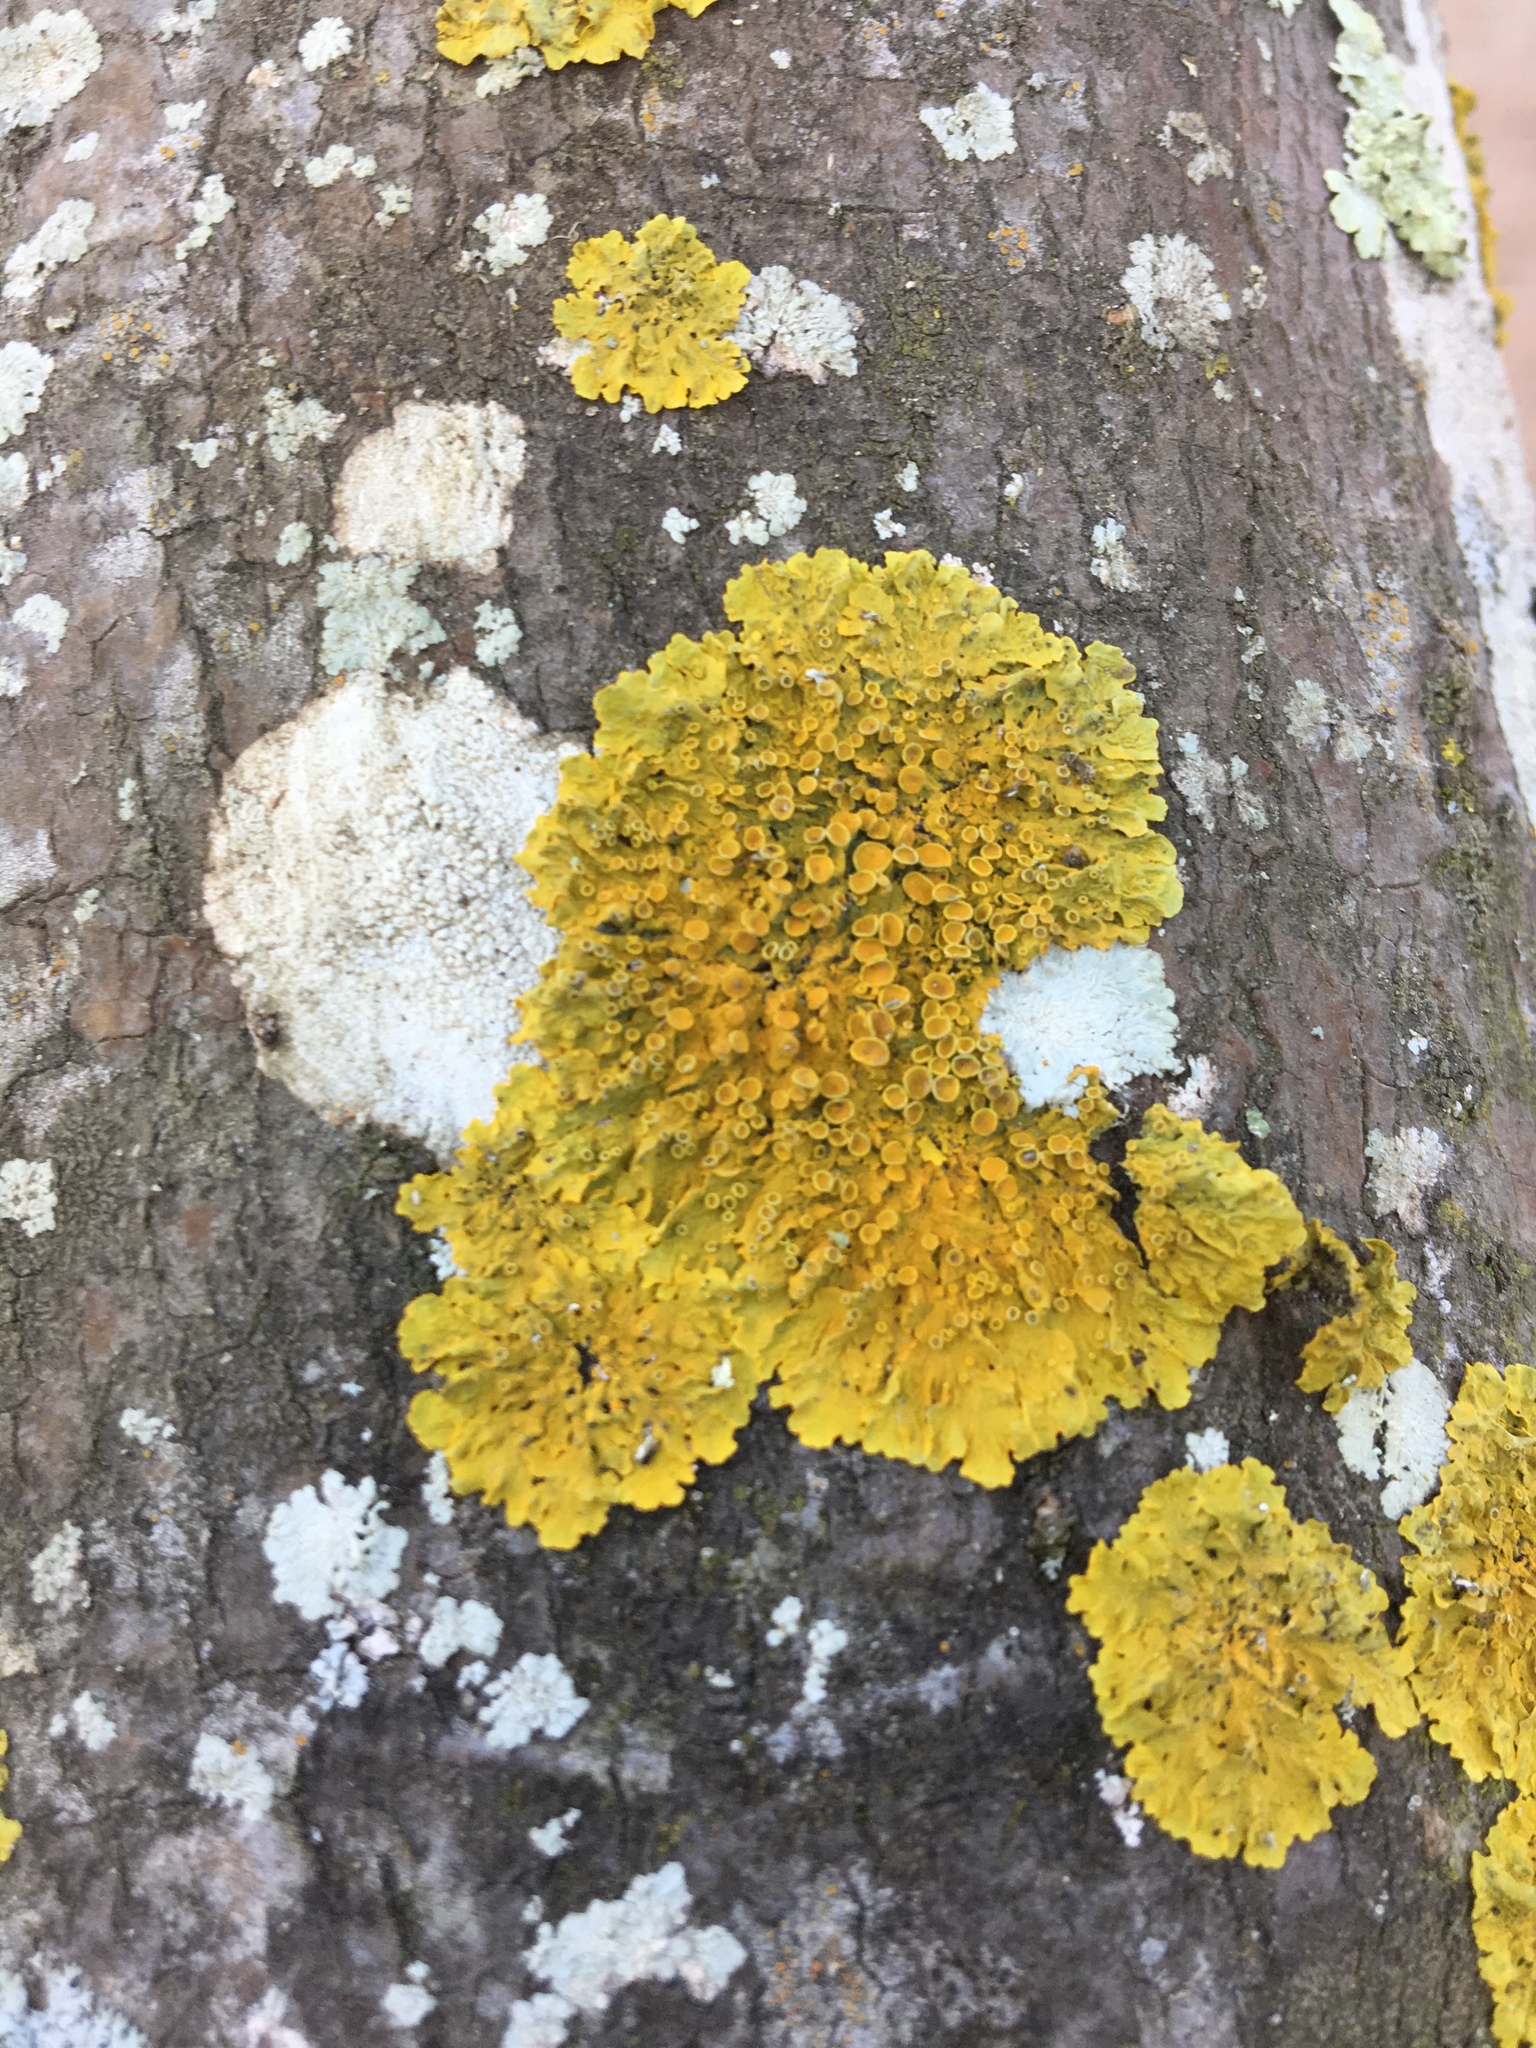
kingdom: Fungi
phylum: Ascomycota
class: Lecanoromycetes
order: Teloschistales
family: Teloschistaceae
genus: Xanthoria
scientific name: Xanthoria parietina
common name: Common orange lichen
